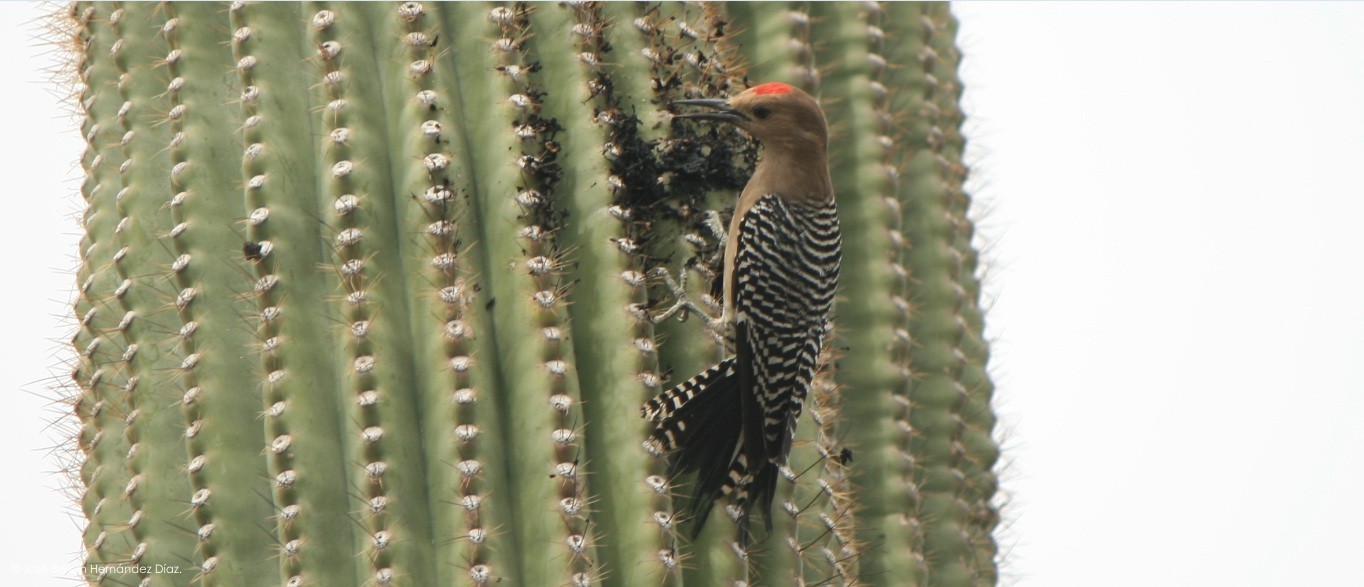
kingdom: Animalia
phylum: Chordata
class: Aves
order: Piciformes
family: Picidae
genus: Melanerpes
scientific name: Melanerpes uropygialis
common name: Gila woodpecker
